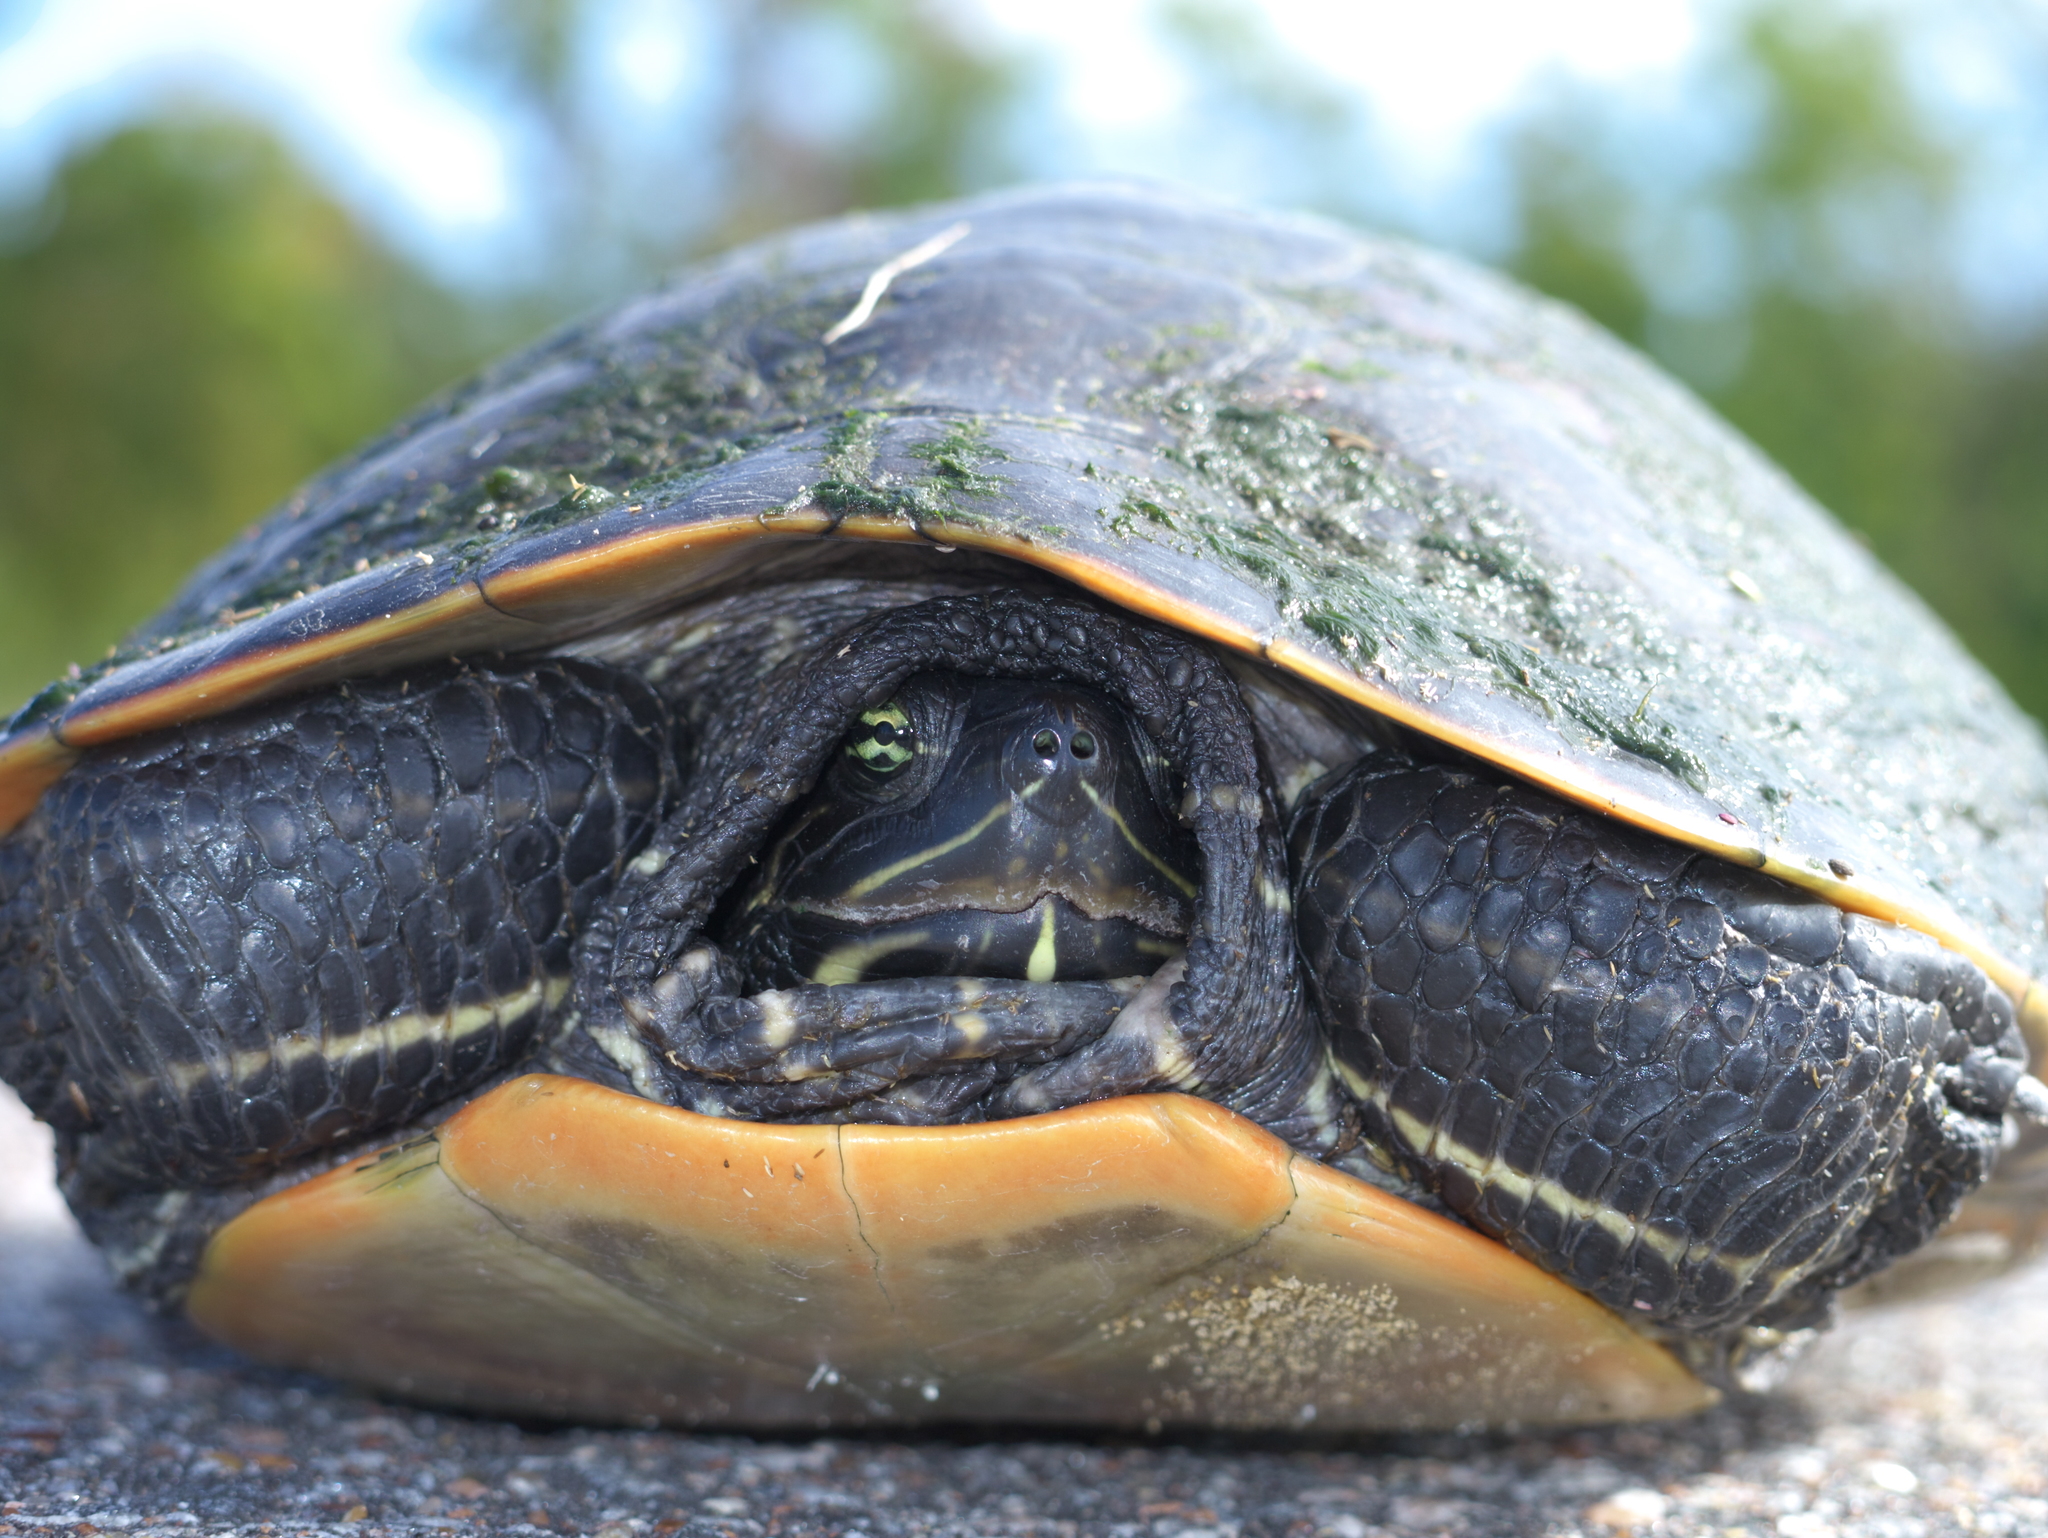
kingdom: Animalia
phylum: Chordata
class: Testudines
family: Emydidae
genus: Pseudemys
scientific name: Pseudemys rubriventris
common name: American red-bellied turtle
